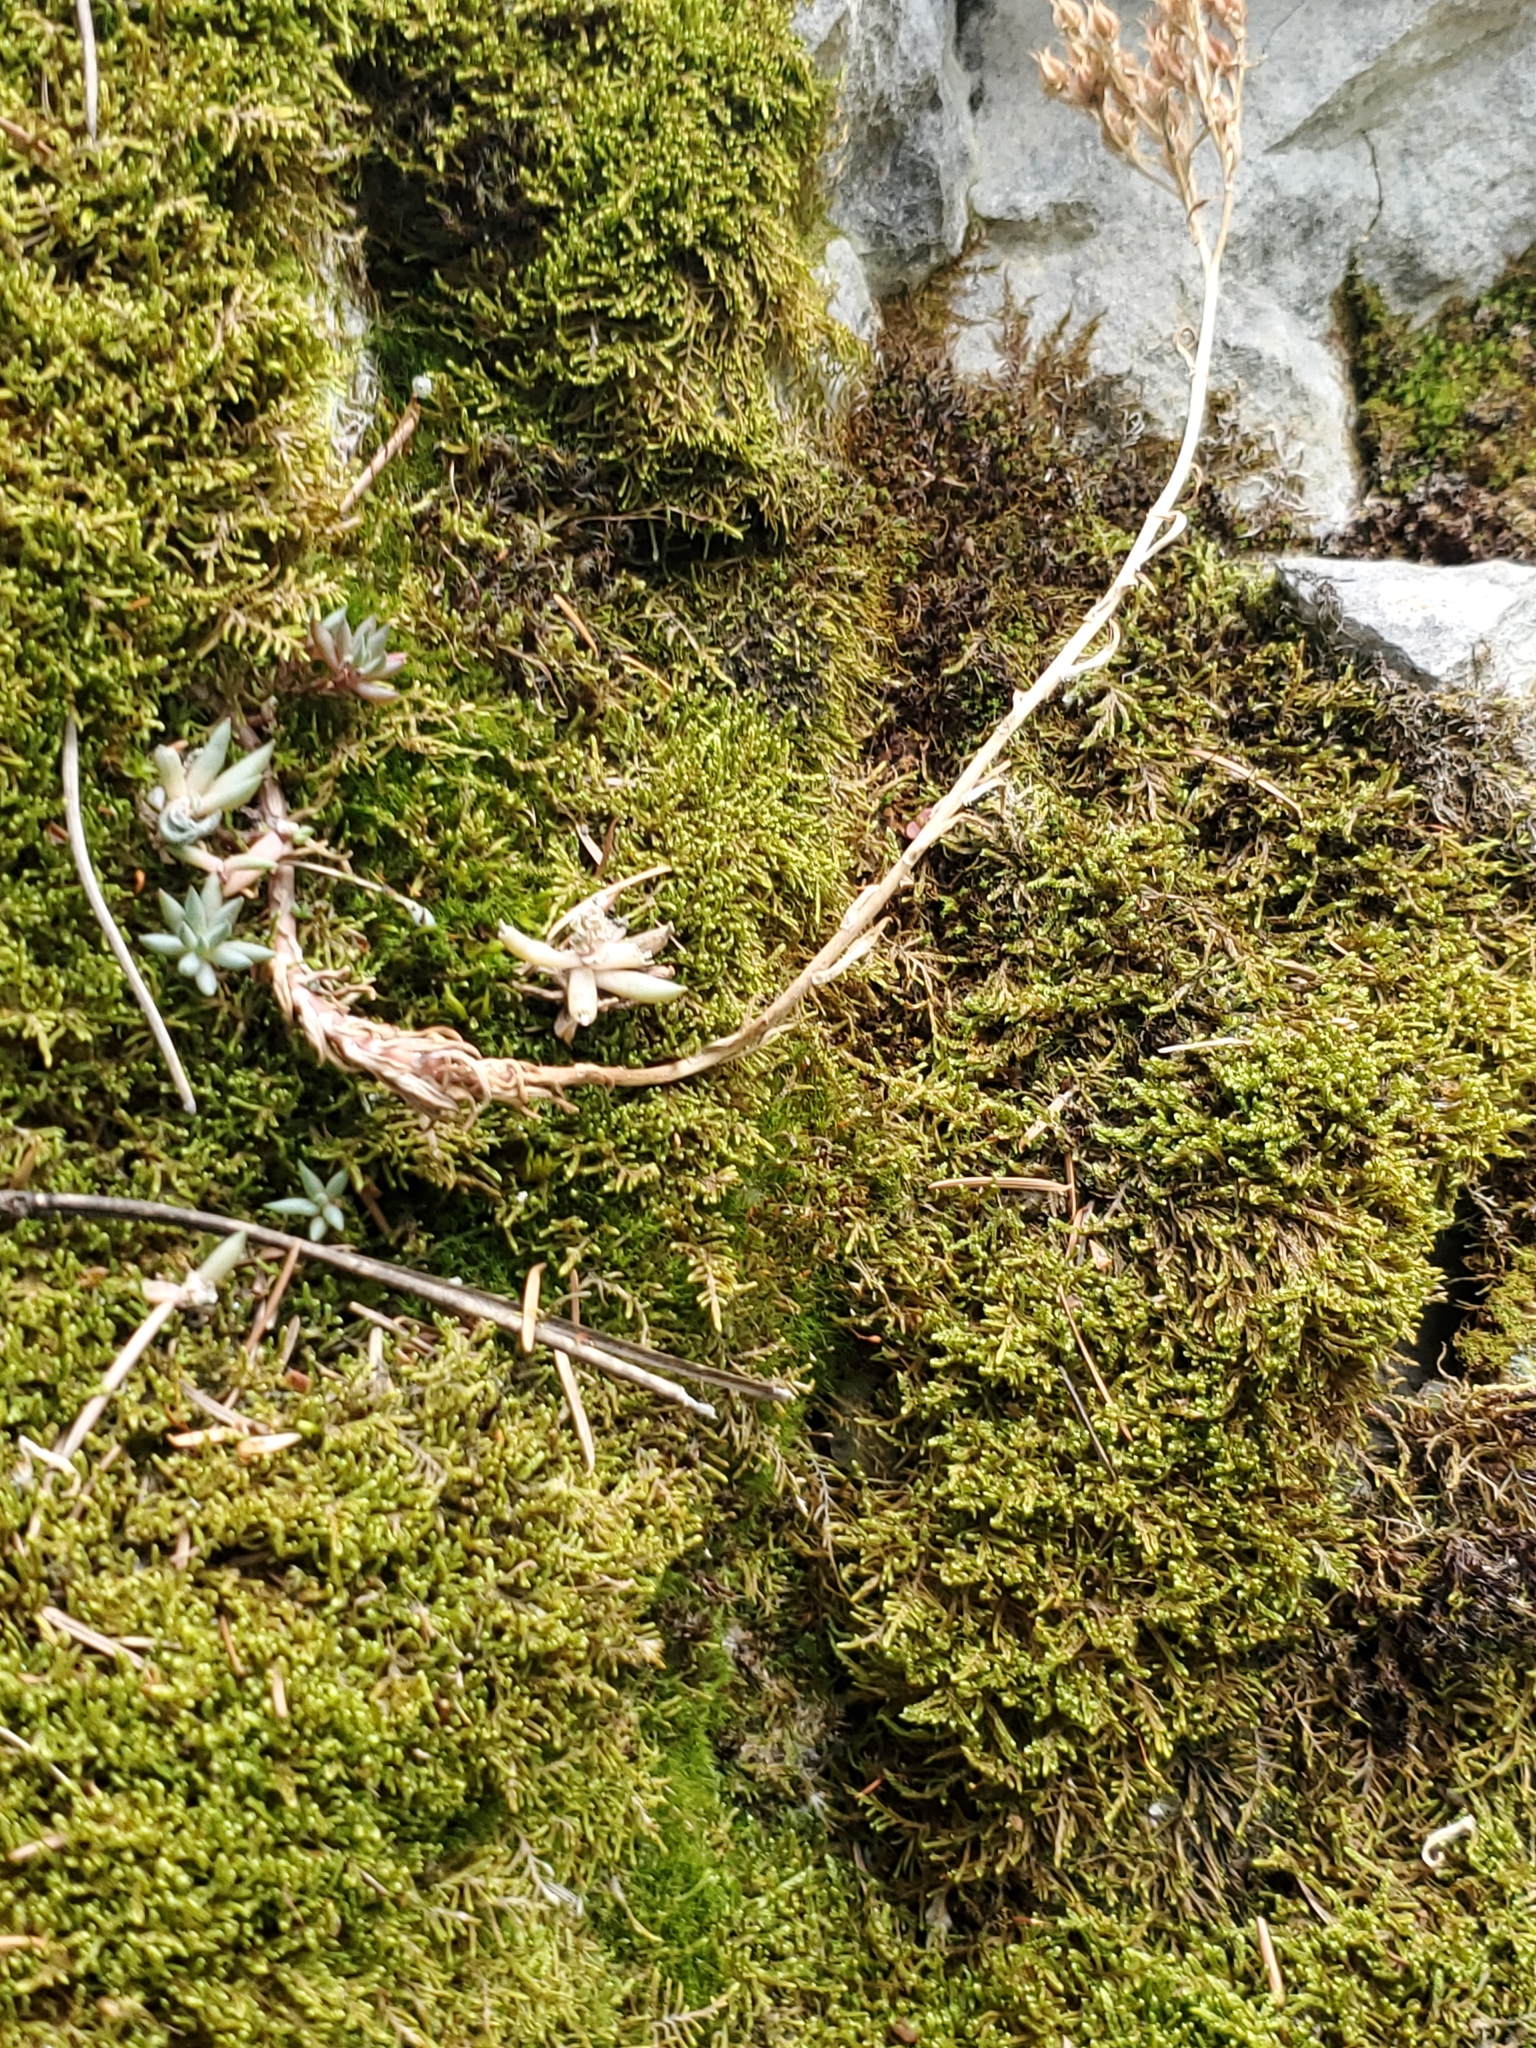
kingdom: Plantae
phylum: Tracheophyta
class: Magnoliopsida
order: Saxifragales
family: Crassulaceae
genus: Sedum
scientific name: Sedum lanceolatum
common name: Common stonecrop
